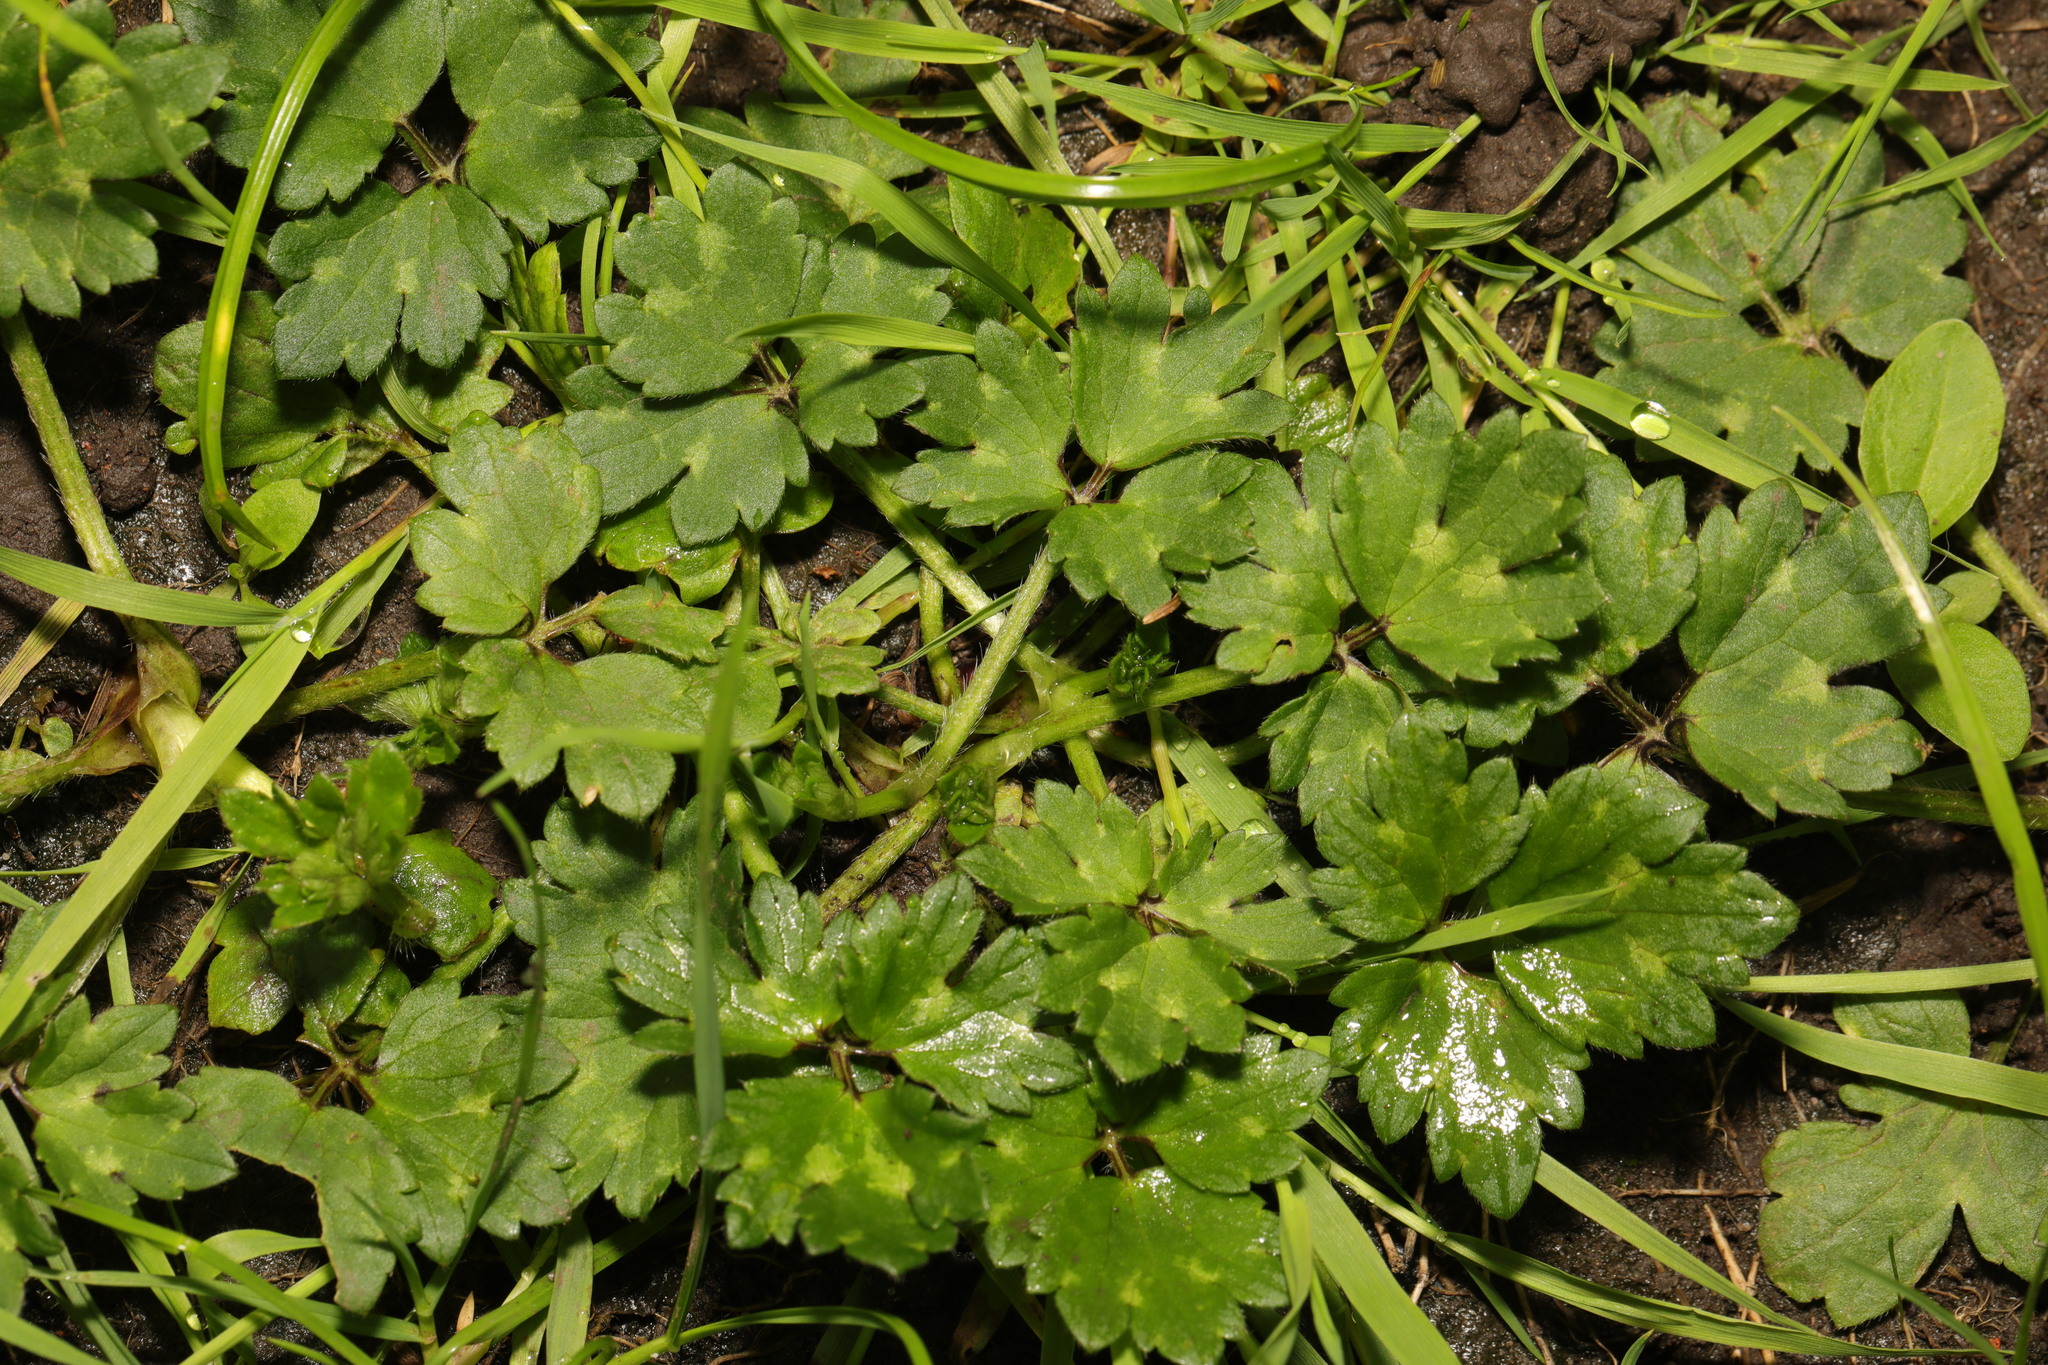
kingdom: Plantae
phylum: Tracheophyta
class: Magnoliopsida
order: Ranunculales
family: Ranunculaceae
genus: Ranunculus
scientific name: Ranunculus repens
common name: Creeping buttercup
